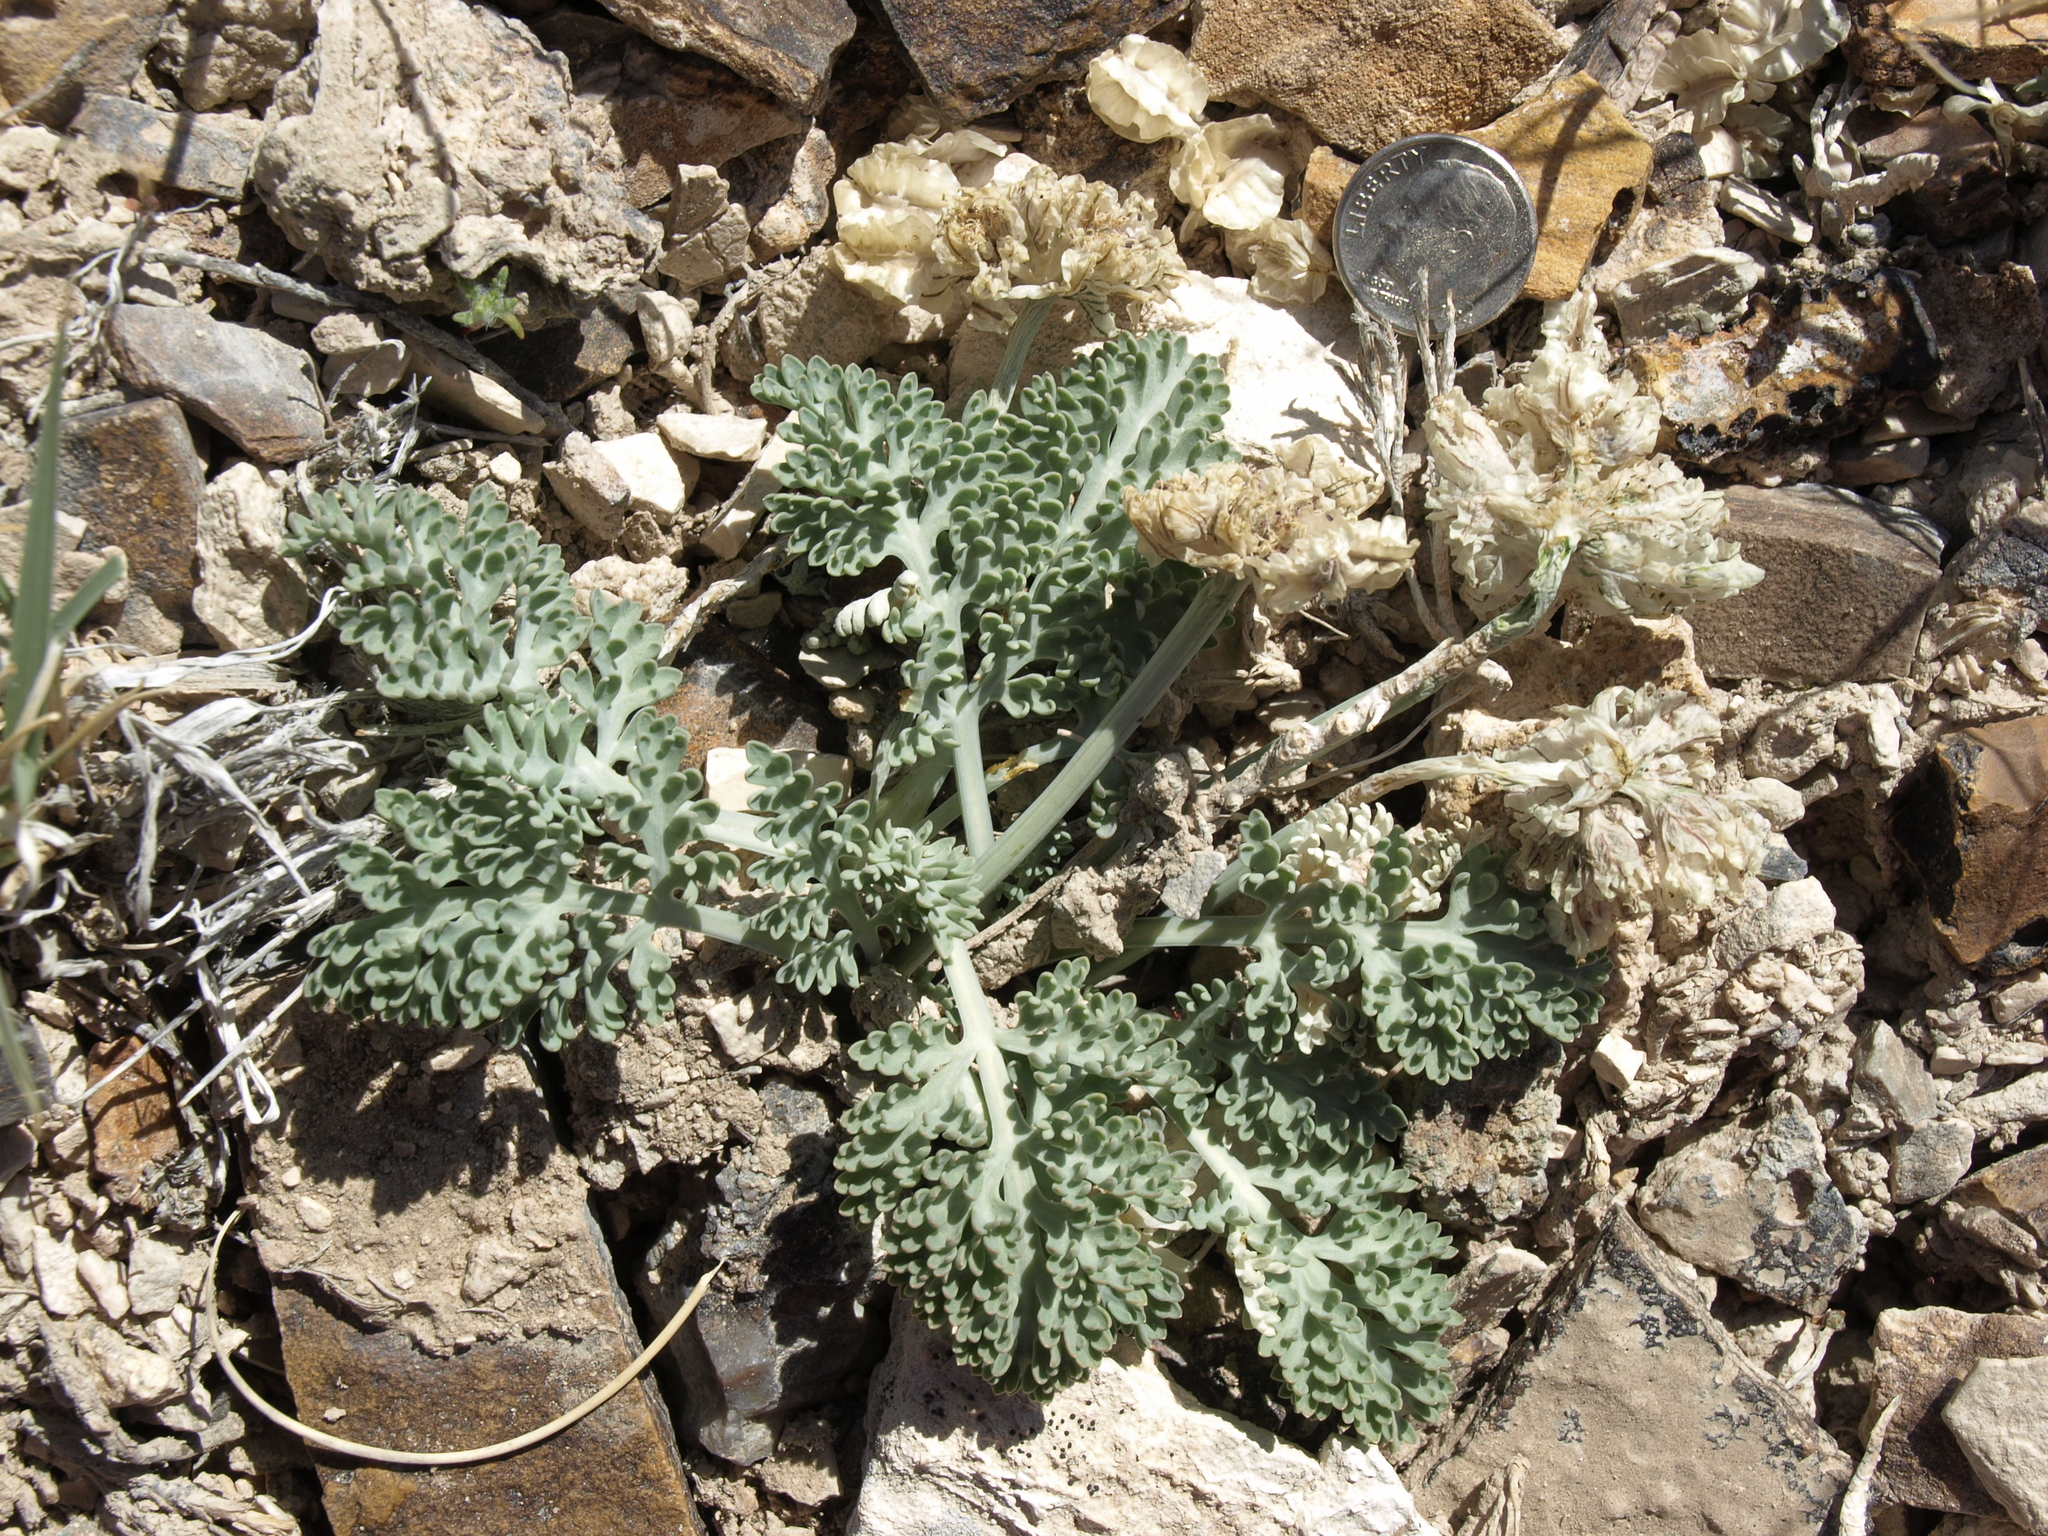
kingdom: Plantae
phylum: Tracheophyta
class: Magnoliopsida
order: Apiales
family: Apiaceae
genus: Vesper
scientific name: Vesper purpurascens
